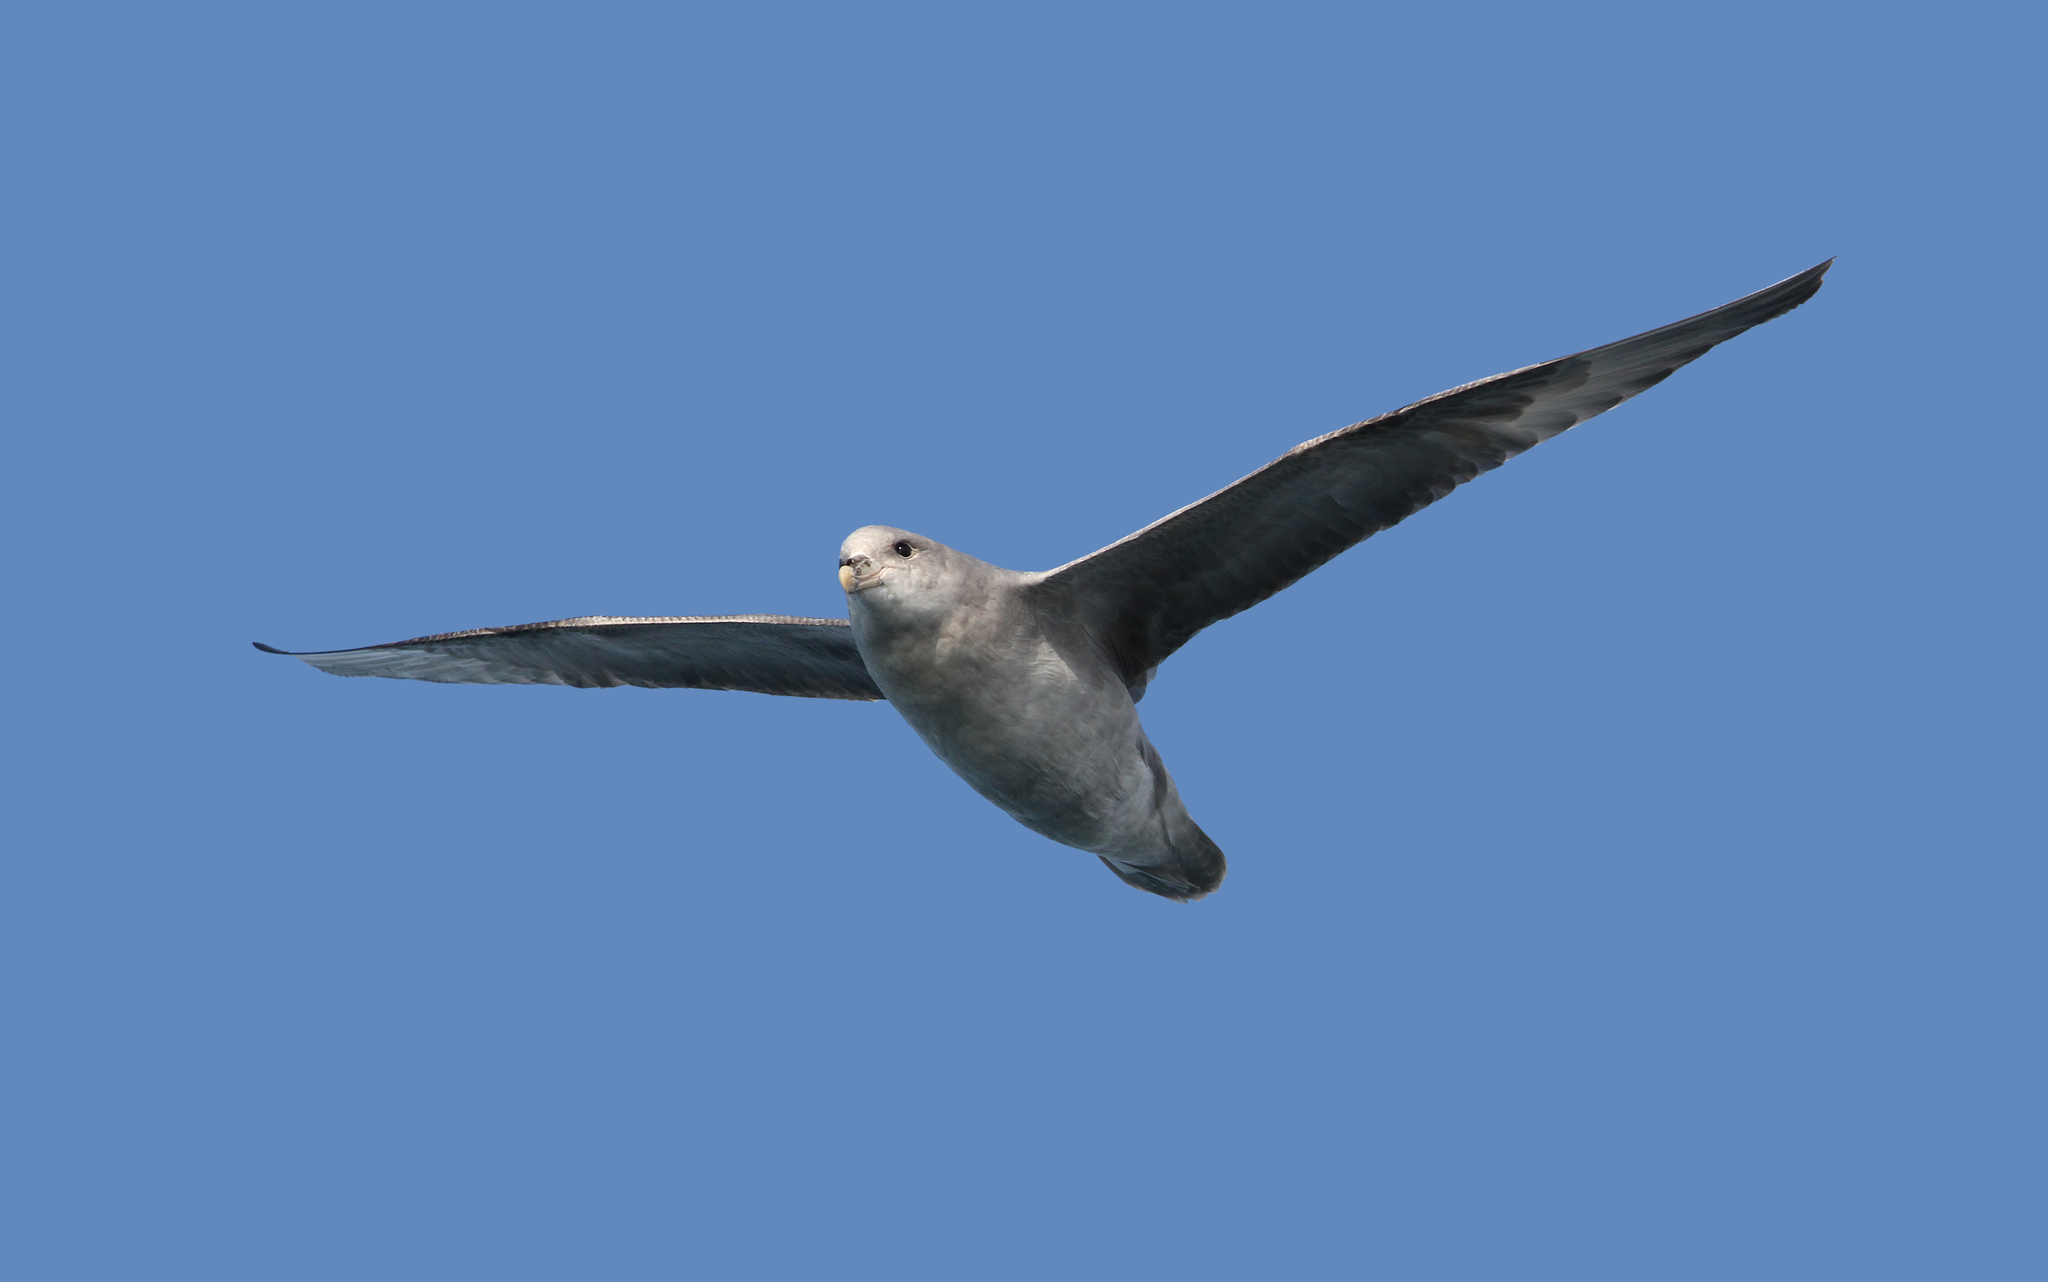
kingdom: Animalia
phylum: Chordata
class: Aves
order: Procellariiformes
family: Procellariidae
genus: Fulmarus
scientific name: Fulmarus glacialis
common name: Northern fulmar
